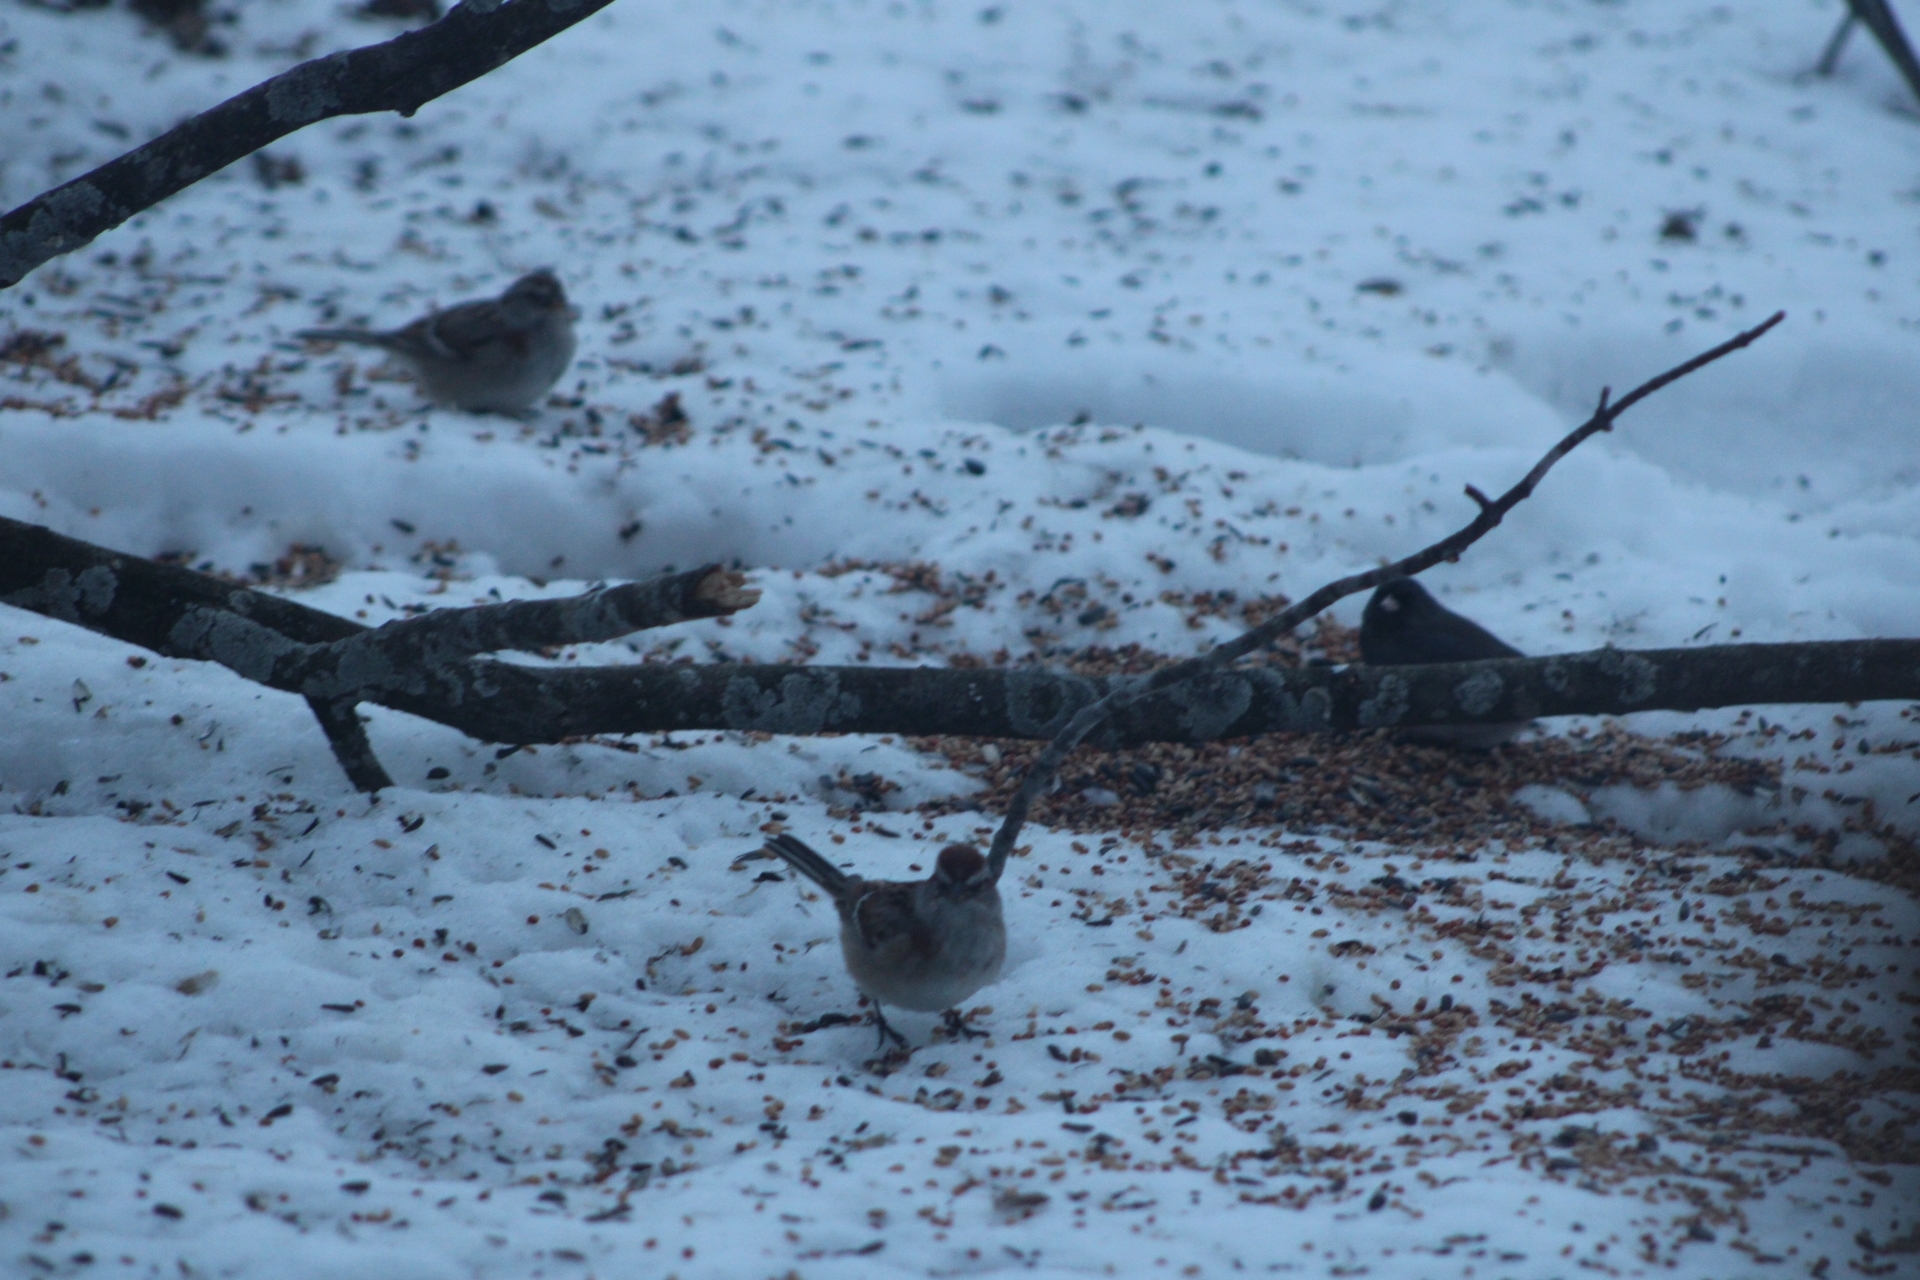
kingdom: Animalia
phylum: Chordata
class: Aves
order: Passeriformes
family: Passerellidae
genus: Spizelloides
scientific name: Spizelloides arborea
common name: American tree sparrow
